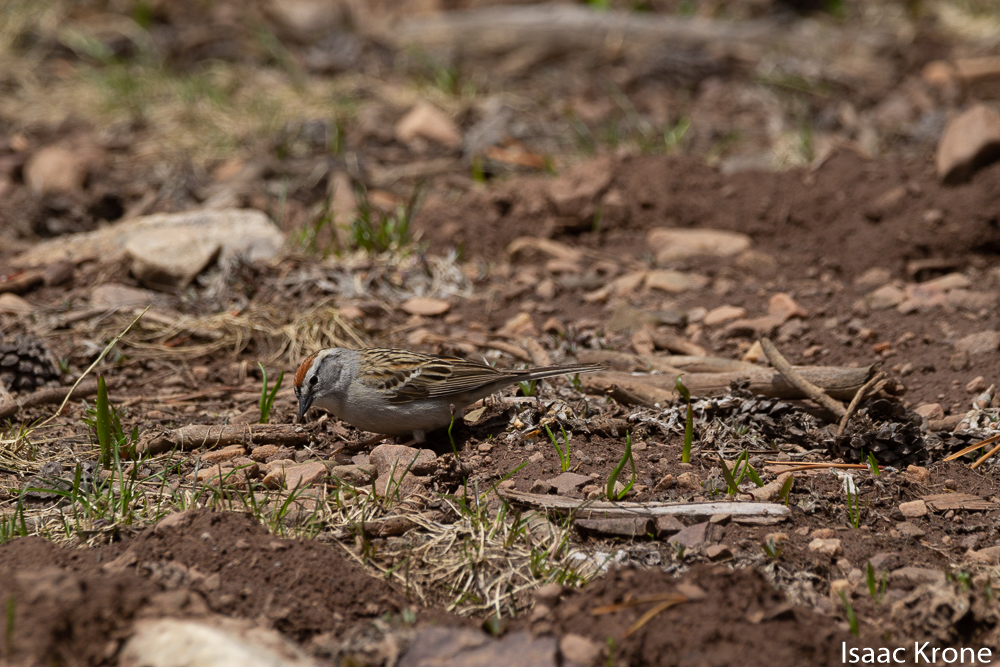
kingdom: Animalia
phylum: Chordata
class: Aves
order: Passeriformes
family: Passerellidae
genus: Spizella
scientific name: Spizella passerina
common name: Chipping sparrow
